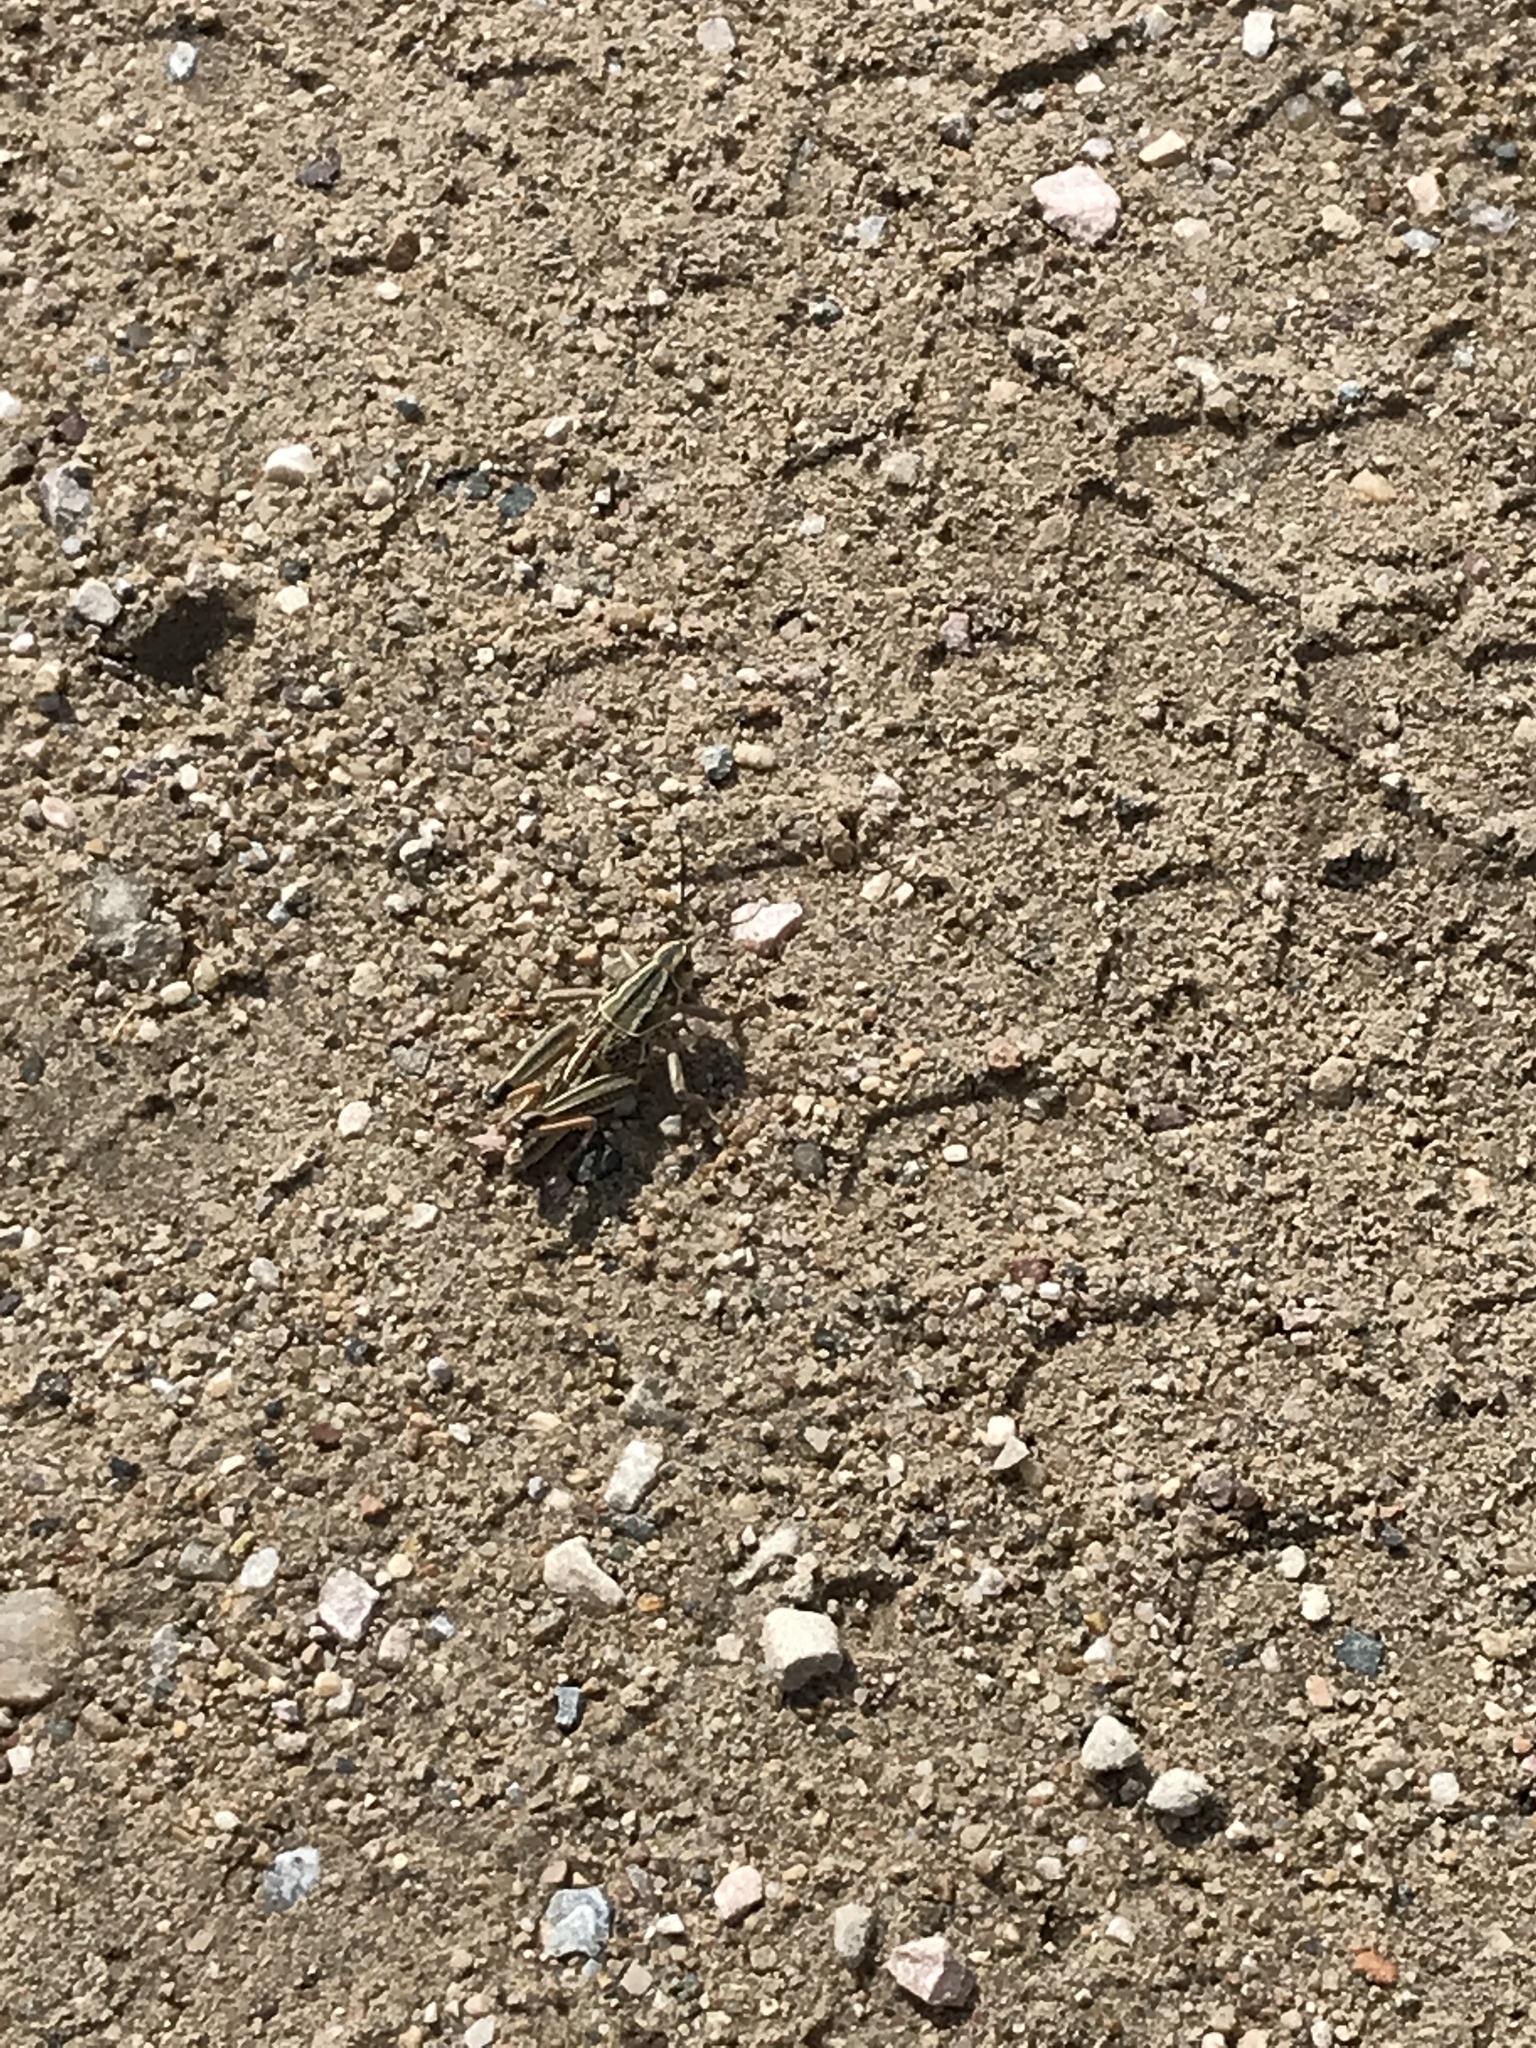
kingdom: Animalia
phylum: Arthropoda
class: Insecta
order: Orthoptera
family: Romaleidae
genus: Brachystola
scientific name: Brachystola magna
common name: Plains lubber grasshopper
